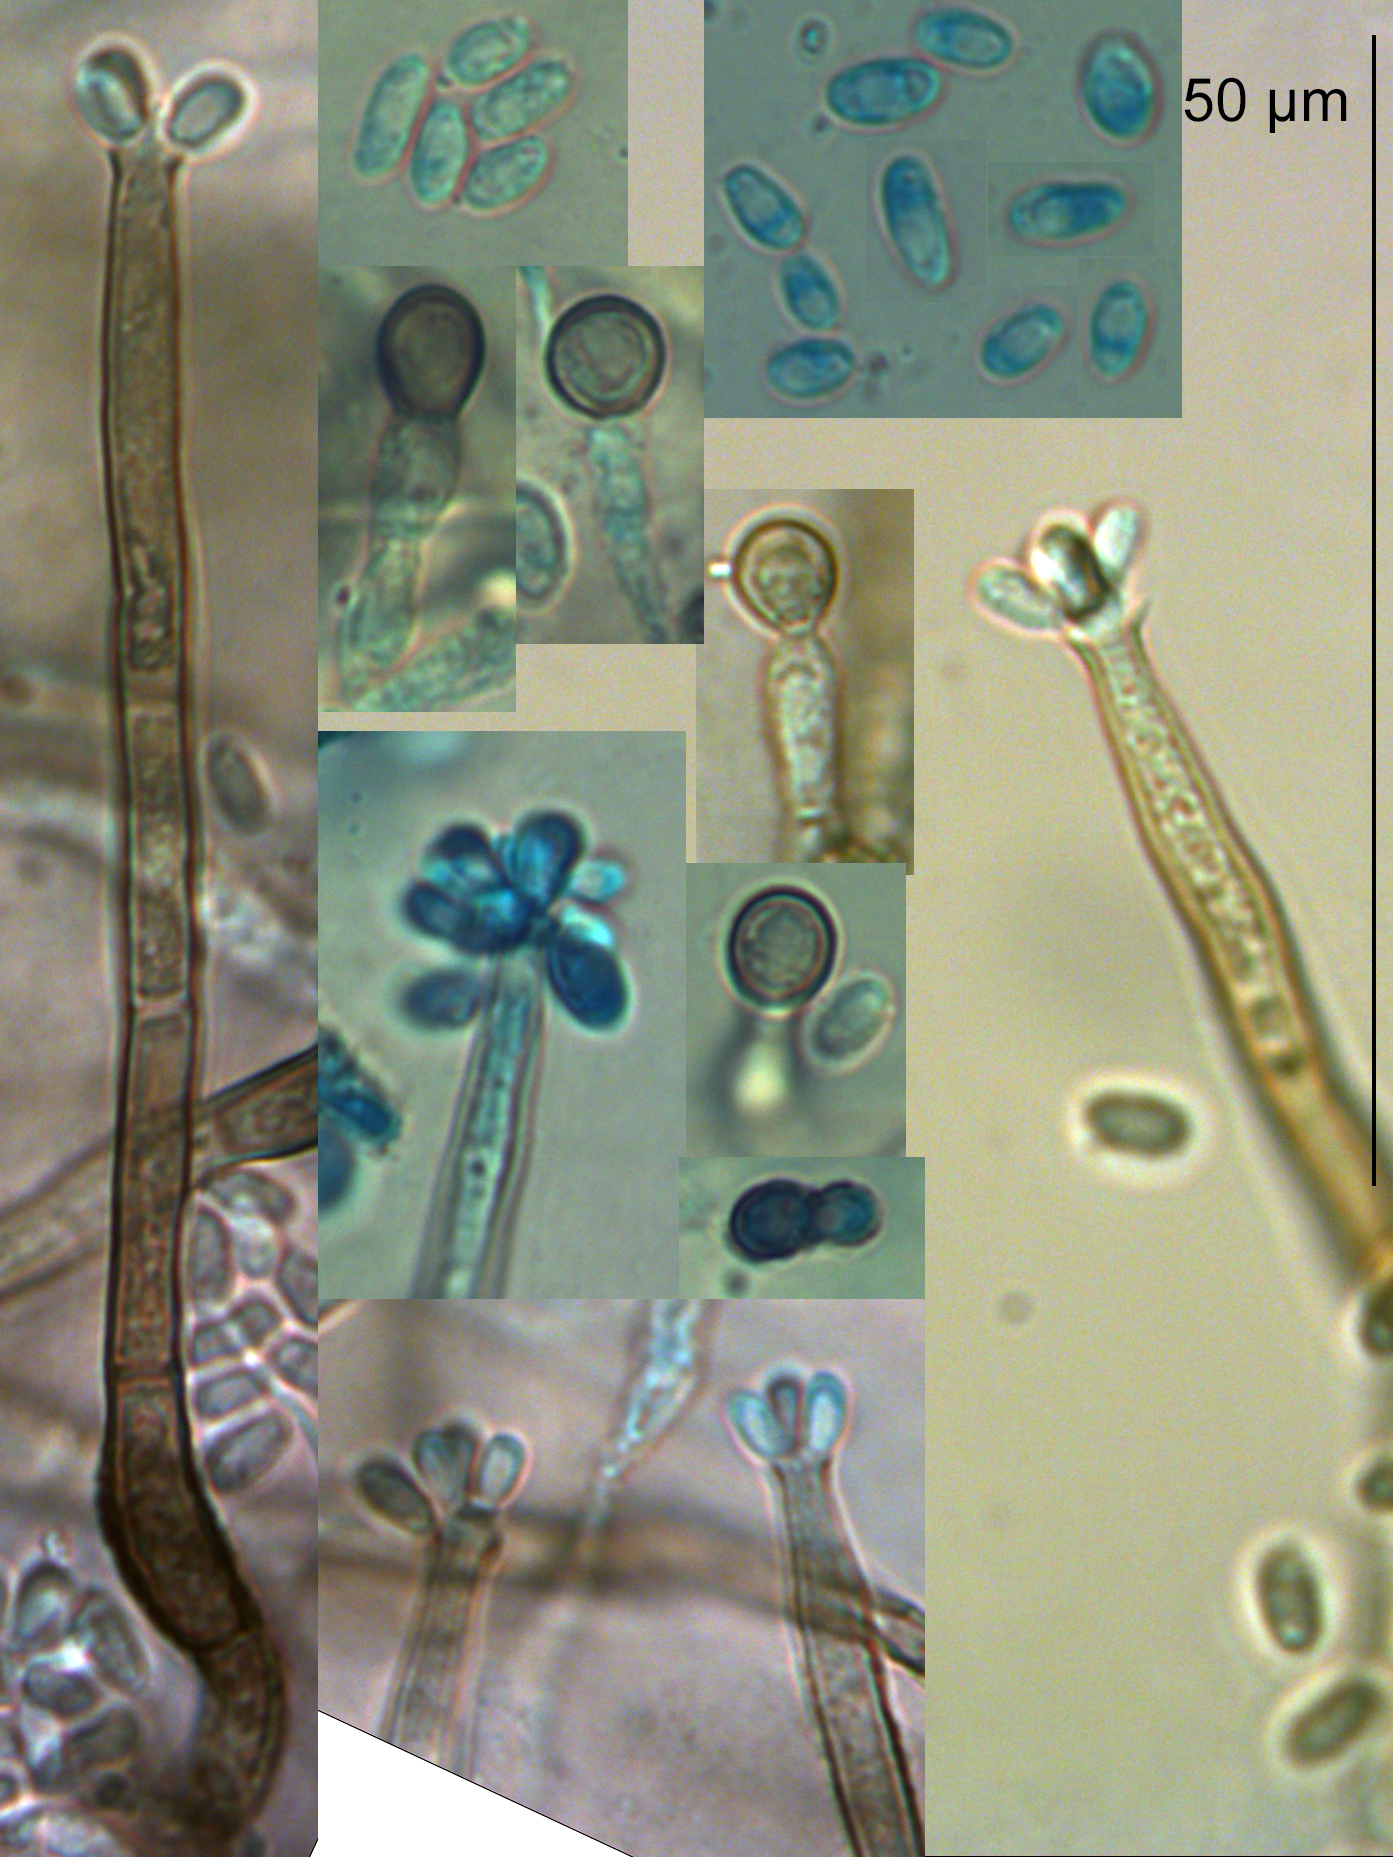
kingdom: Fungi
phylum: Ascomycota
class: Sordariomycetes
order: Chaetosphaeriales
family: Chaetosphaeriaceae
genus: Chaetosphaeria
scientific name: Chaetosphaeria vermicularioides
